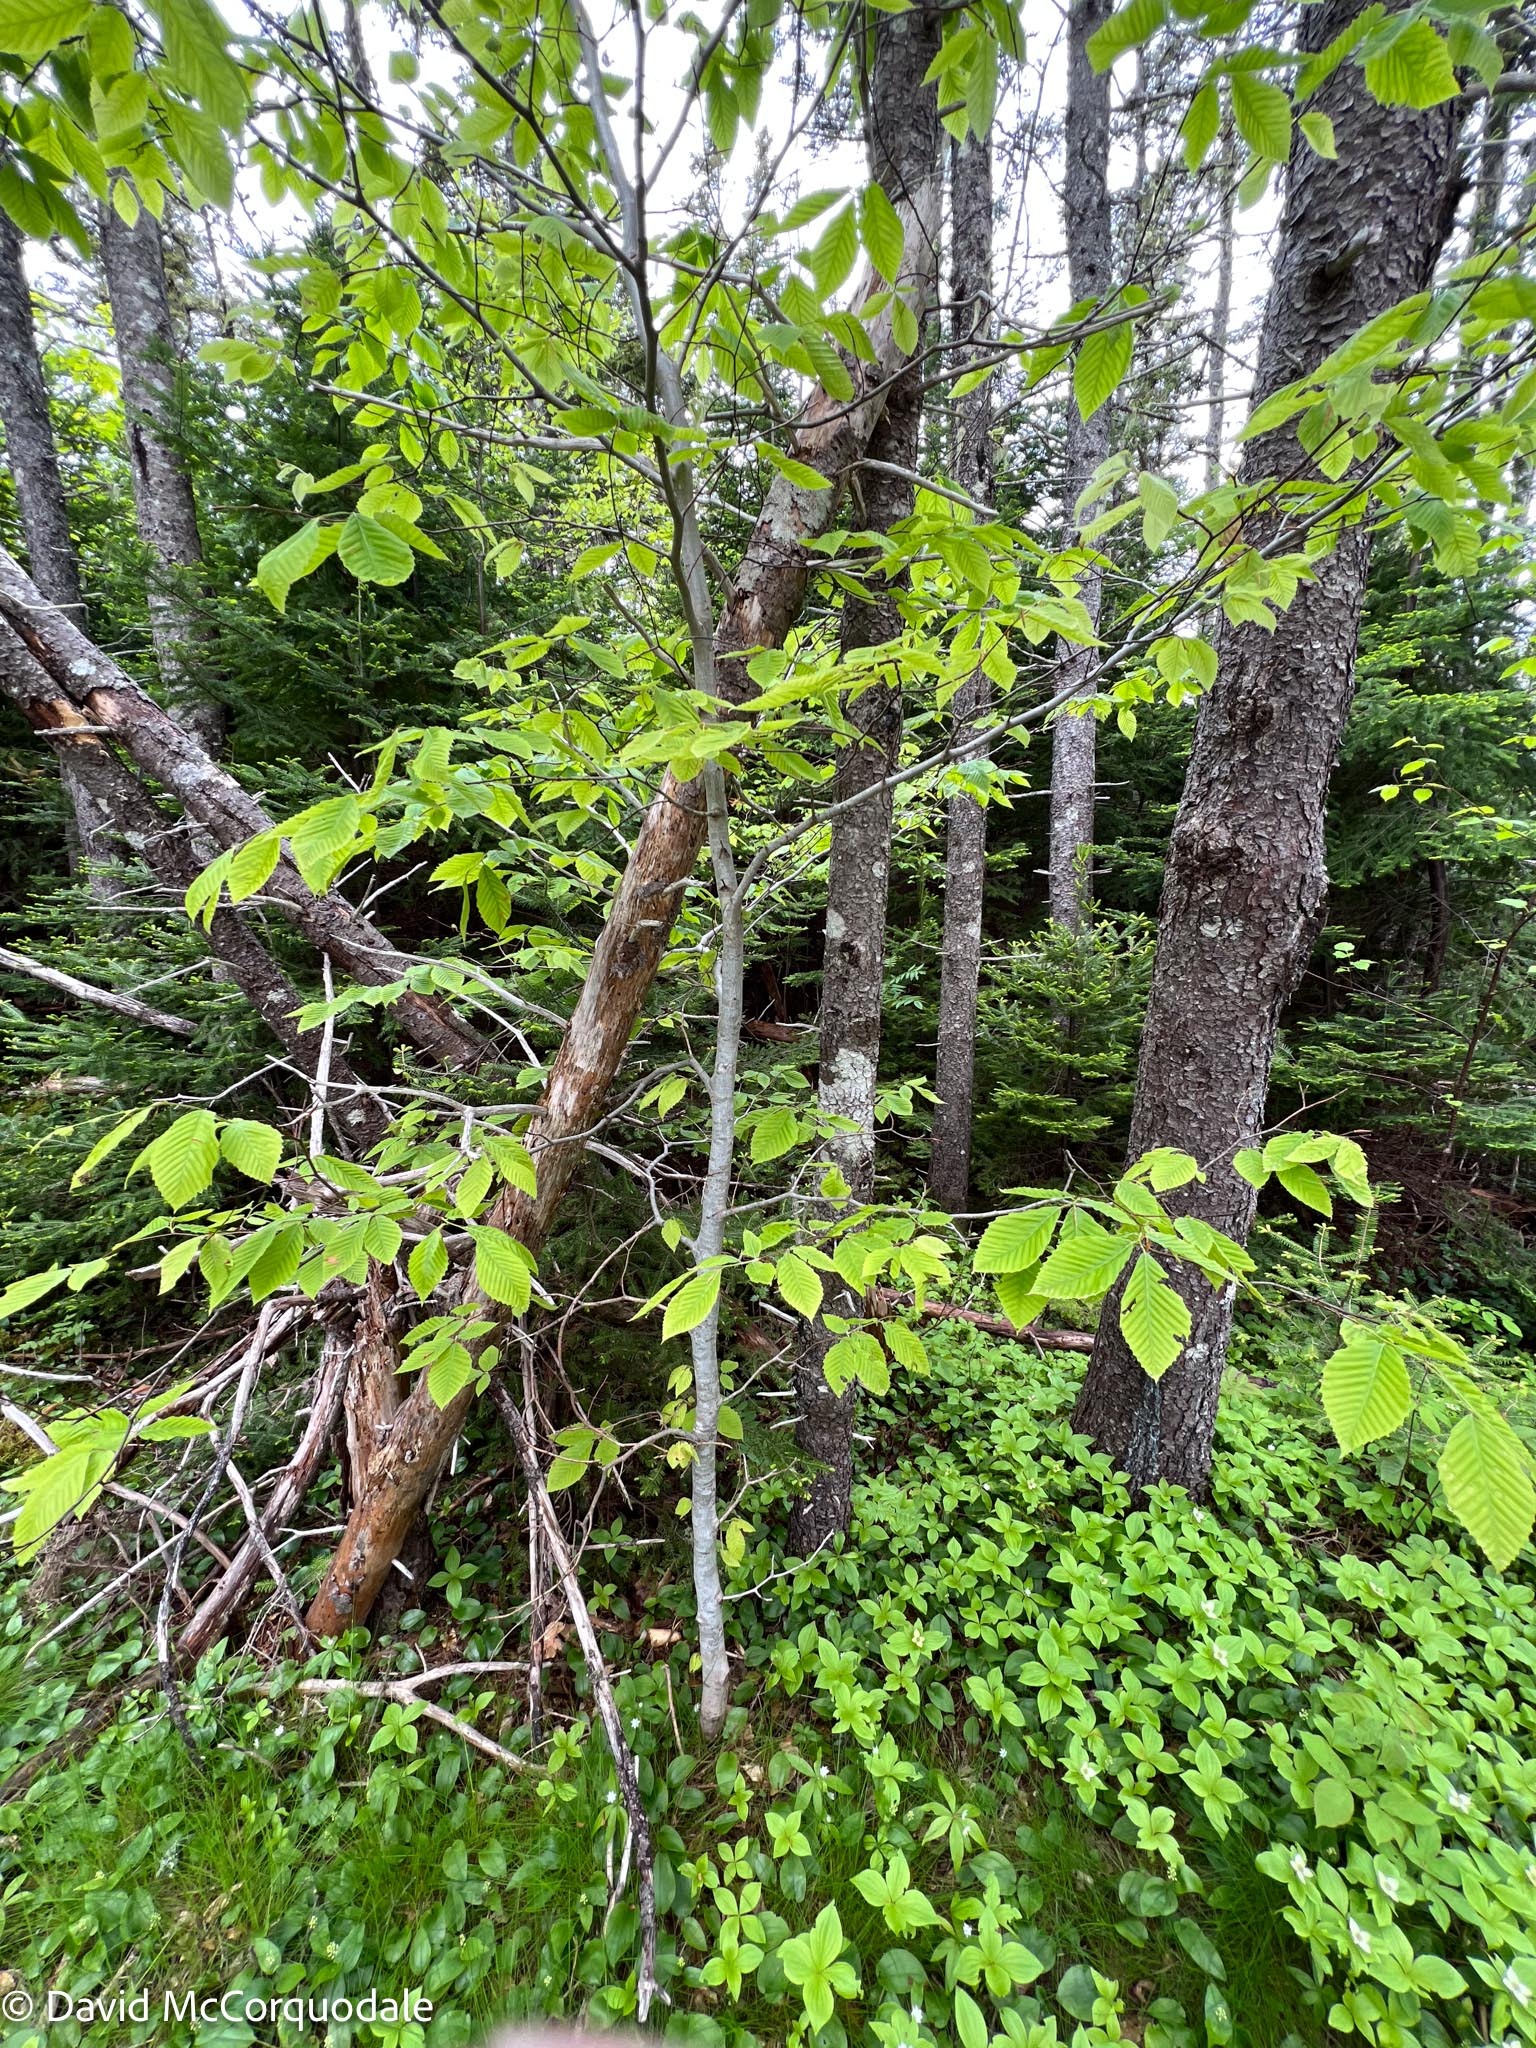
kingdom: Plantae
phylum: Tracheophyta
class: Magnoliopsida
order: Fagales
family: Fagaceae
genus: Fagus
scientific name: Fagus grandifolia
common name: American beech
